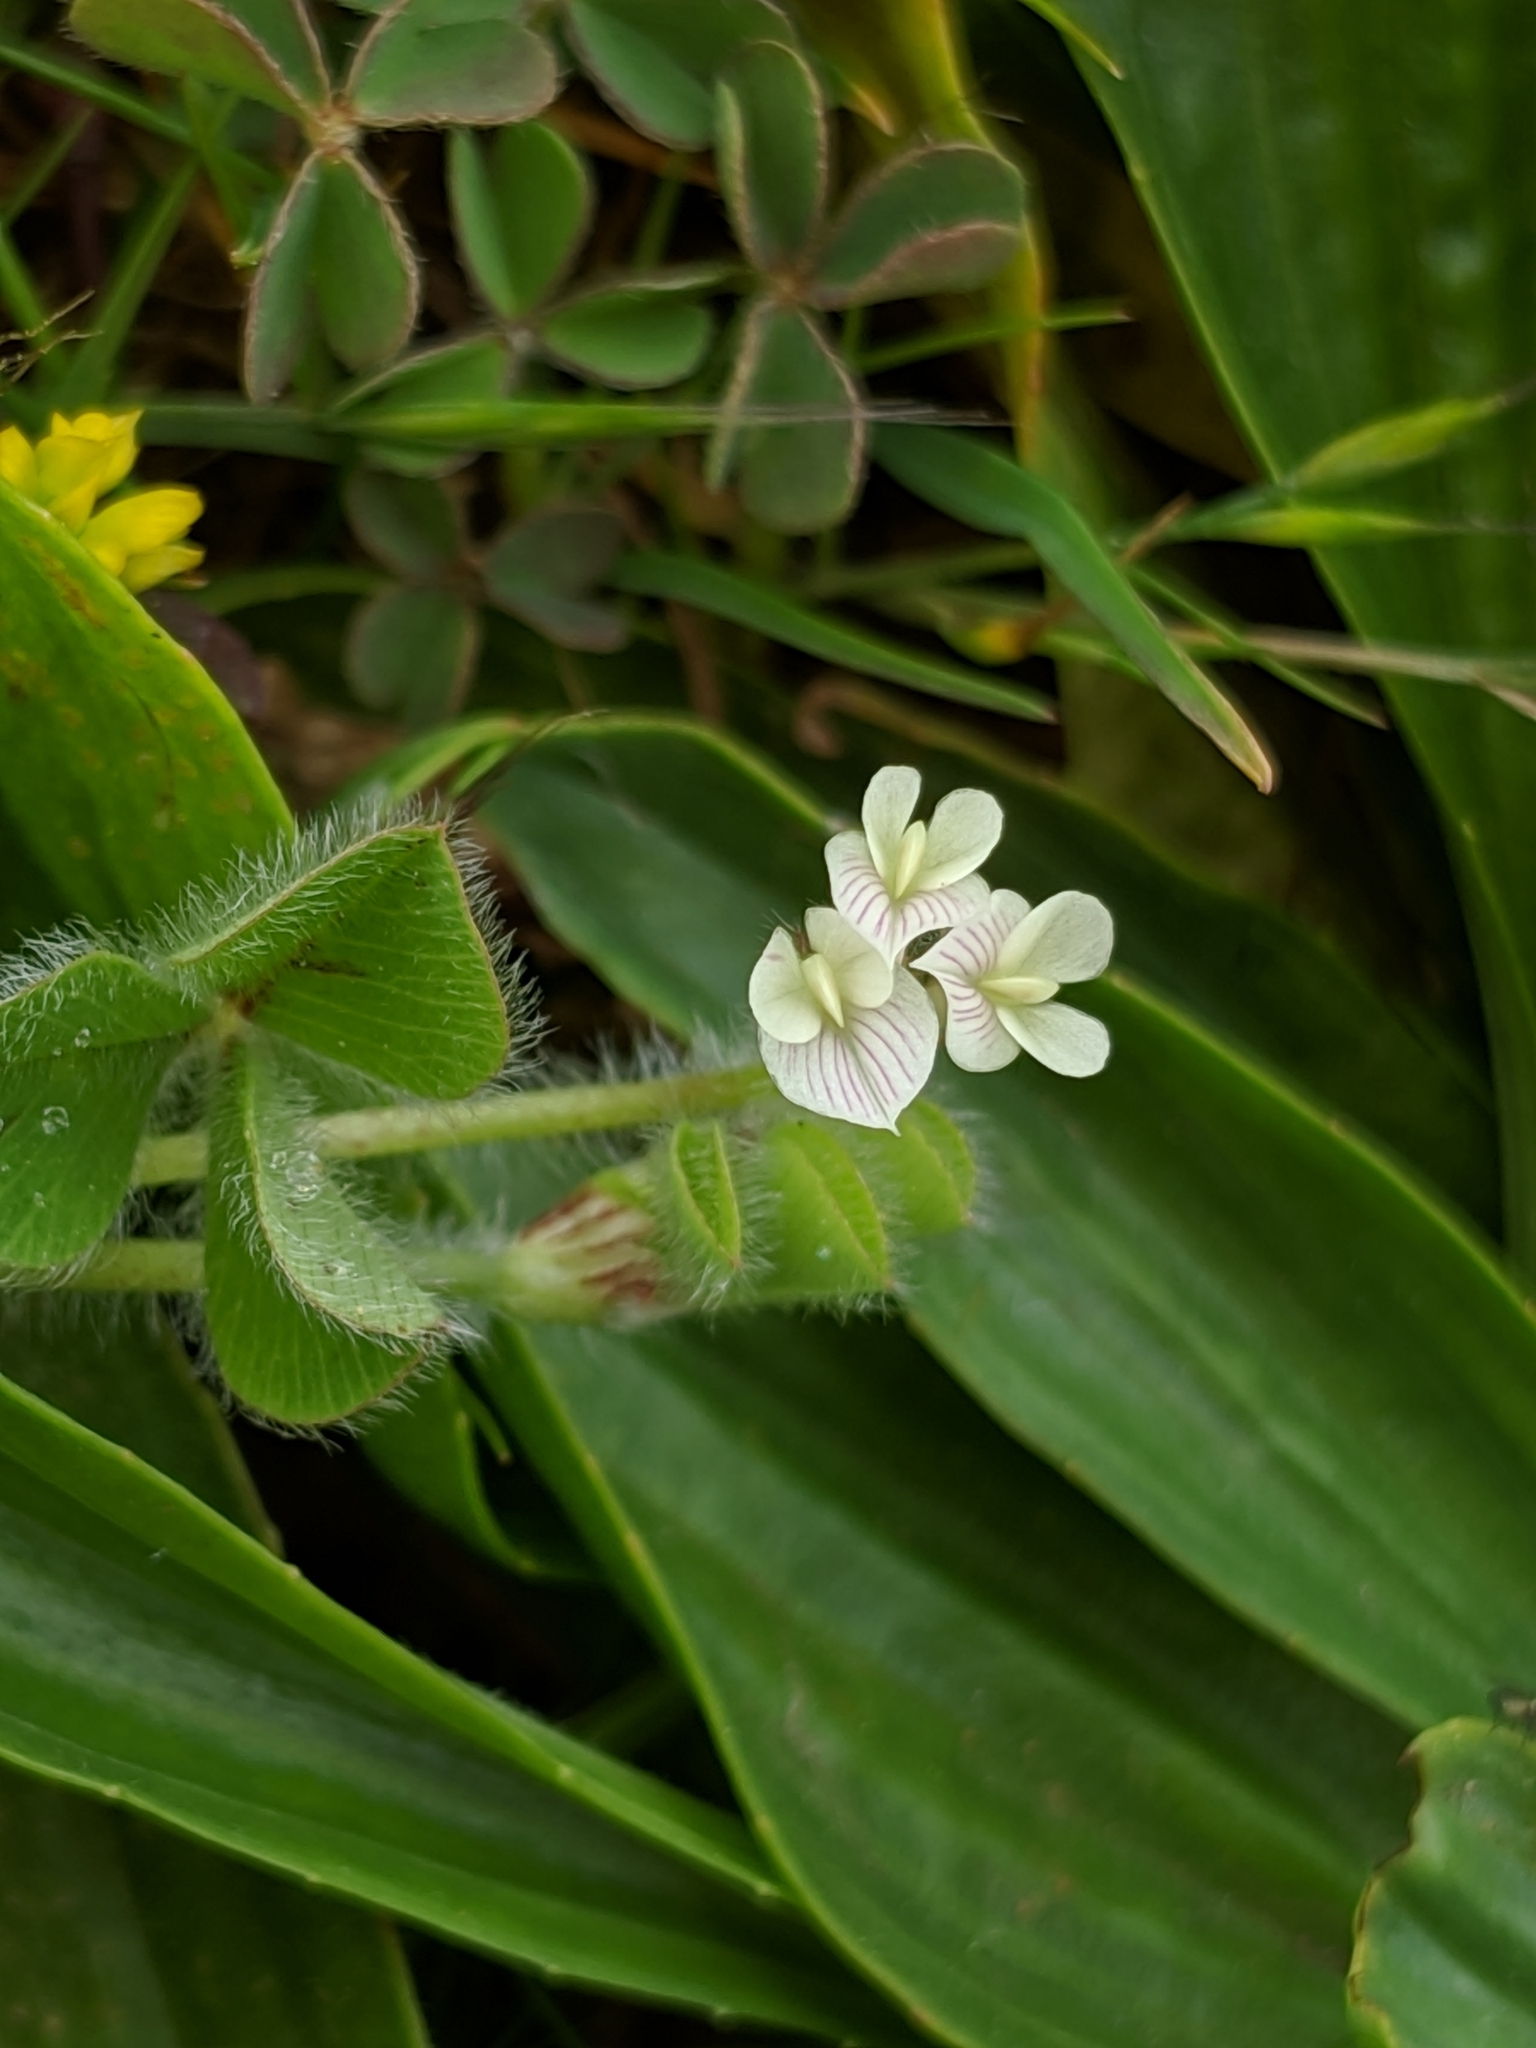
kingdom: Plantae
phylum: Tracheophyta
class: Magnoliopsida
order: Fabales
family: Fabaceae
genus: Trifolium
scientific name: Trifolium subterraneum
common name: Subterranean clover
